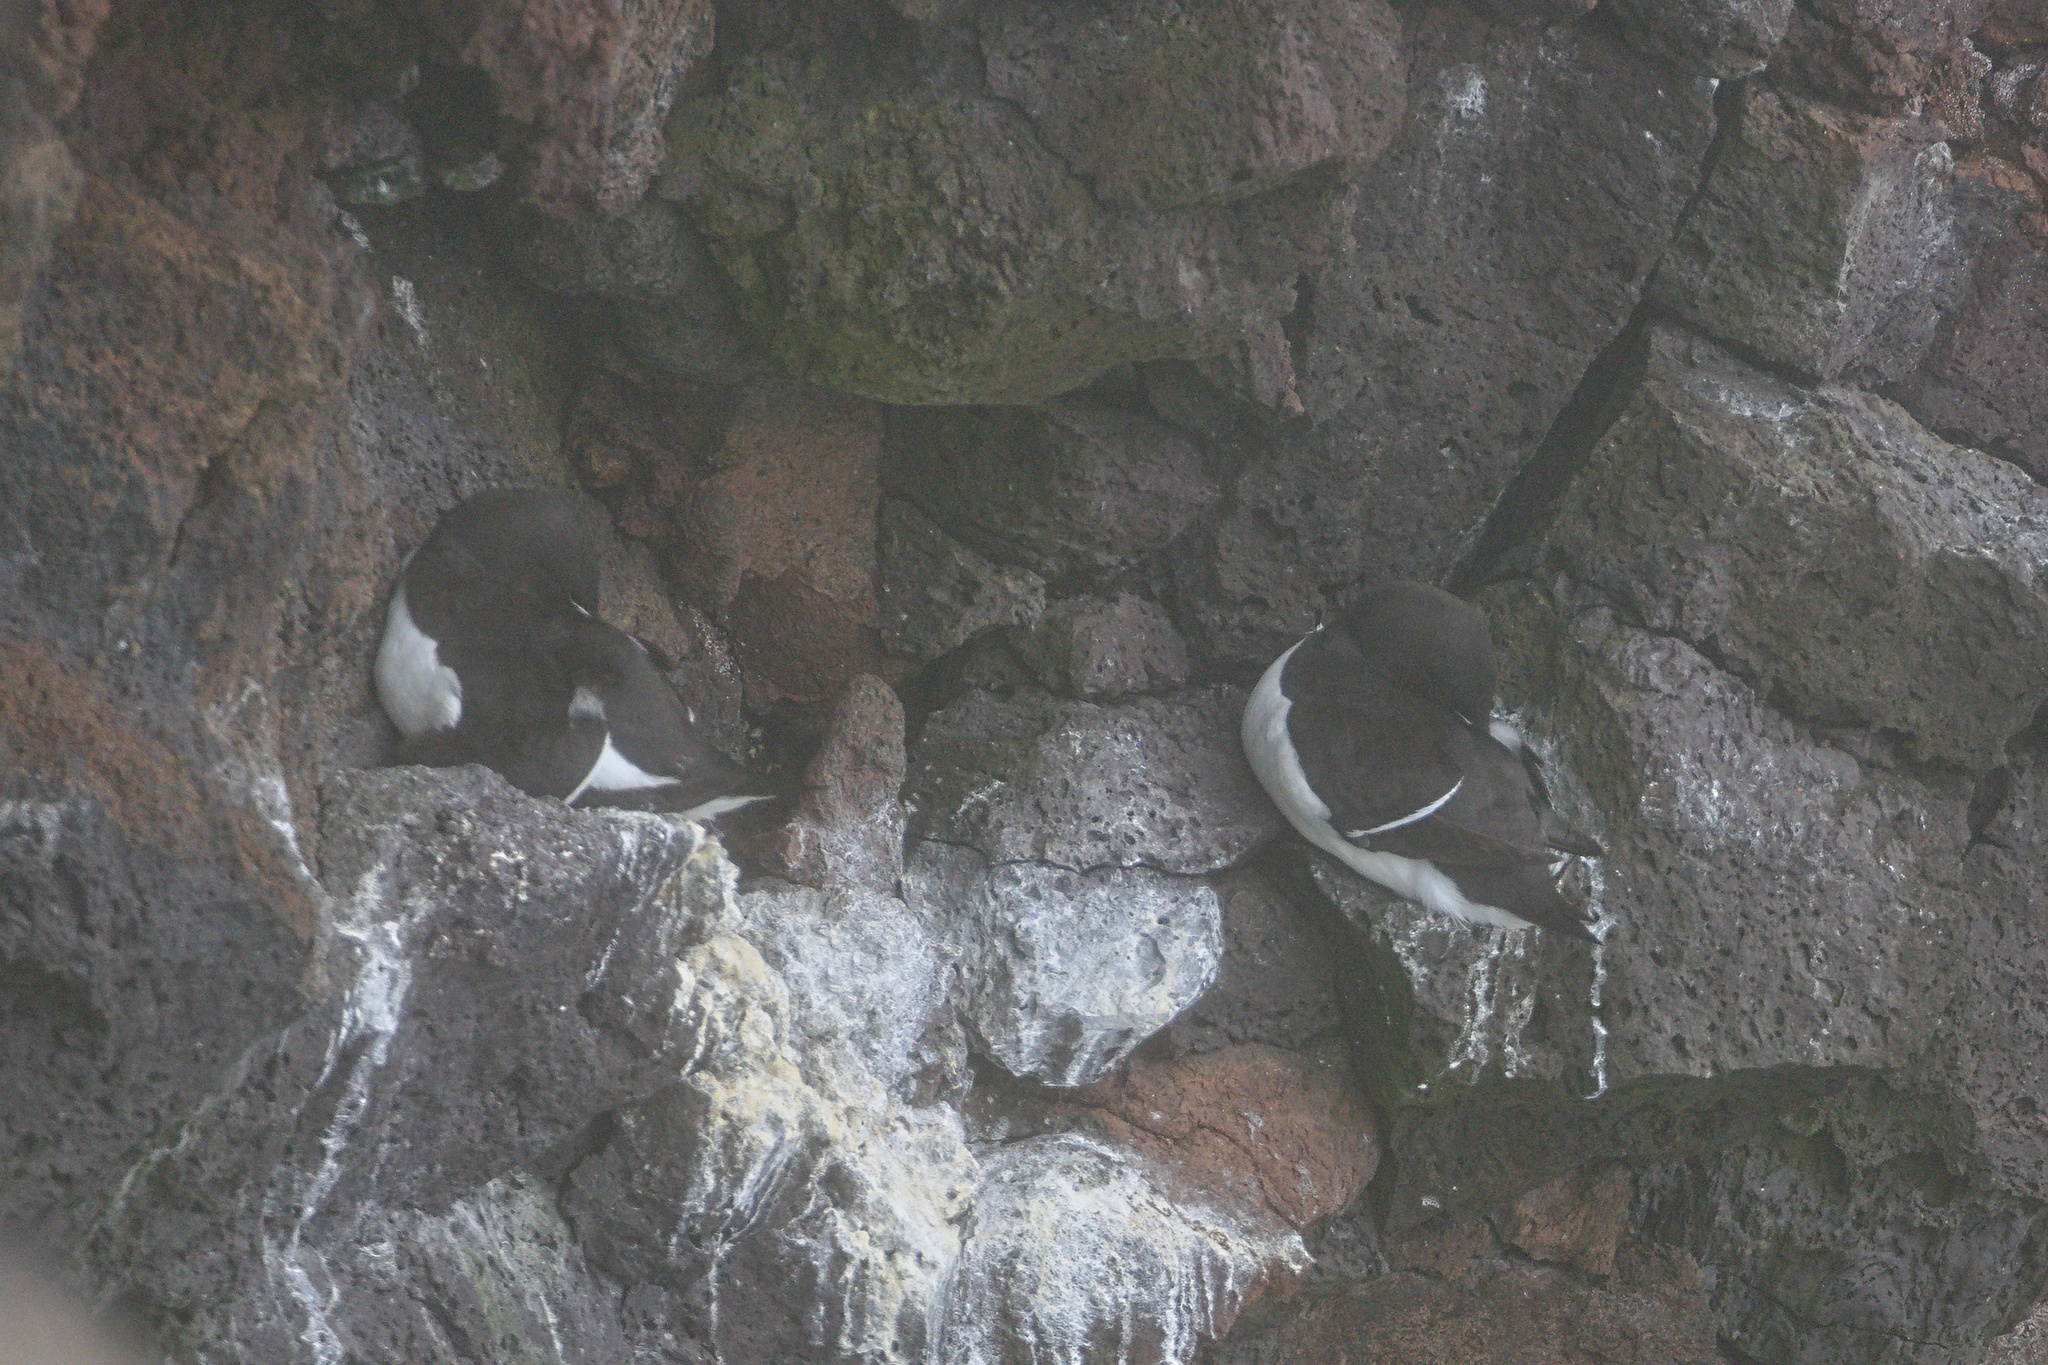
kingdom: Animalia
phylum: Chordata
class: Aves
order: Charadriiformes
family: Alcidae
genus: Alca
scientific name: Alca torda
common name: Razorbill
